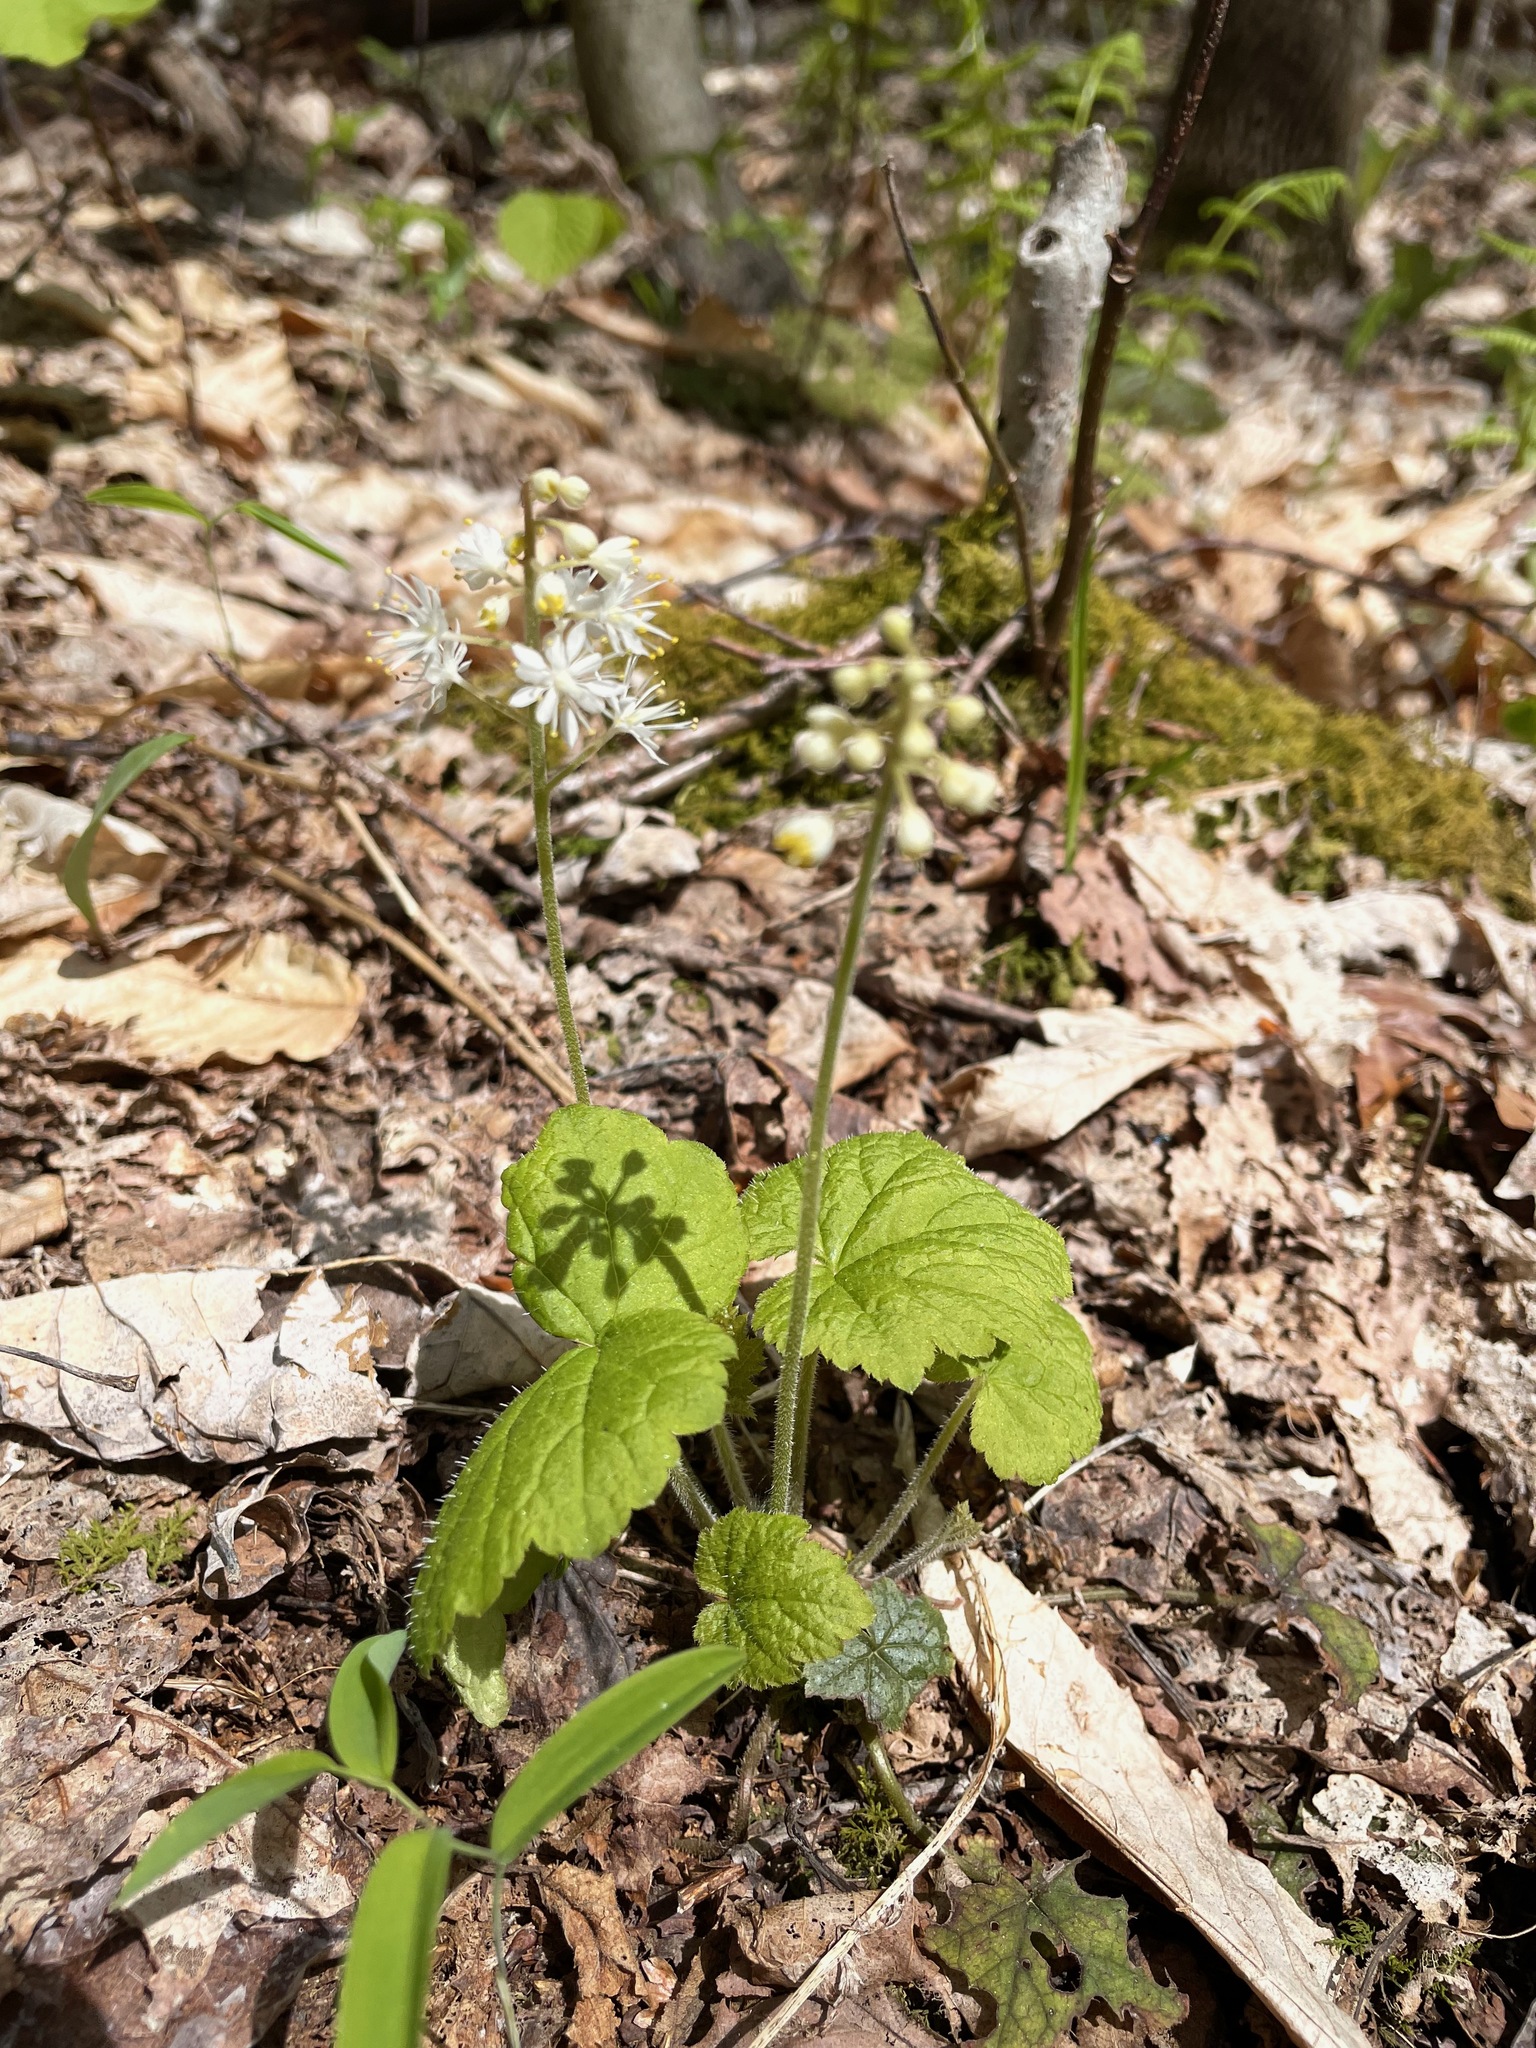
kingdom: Plantae
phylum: Tracheophyta
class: Magnoliopsida
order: Saxifragales
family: Saxifragaceae
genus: Tiarella
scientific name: Tiarella stolonifera
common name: Stoloniferous foamflower
